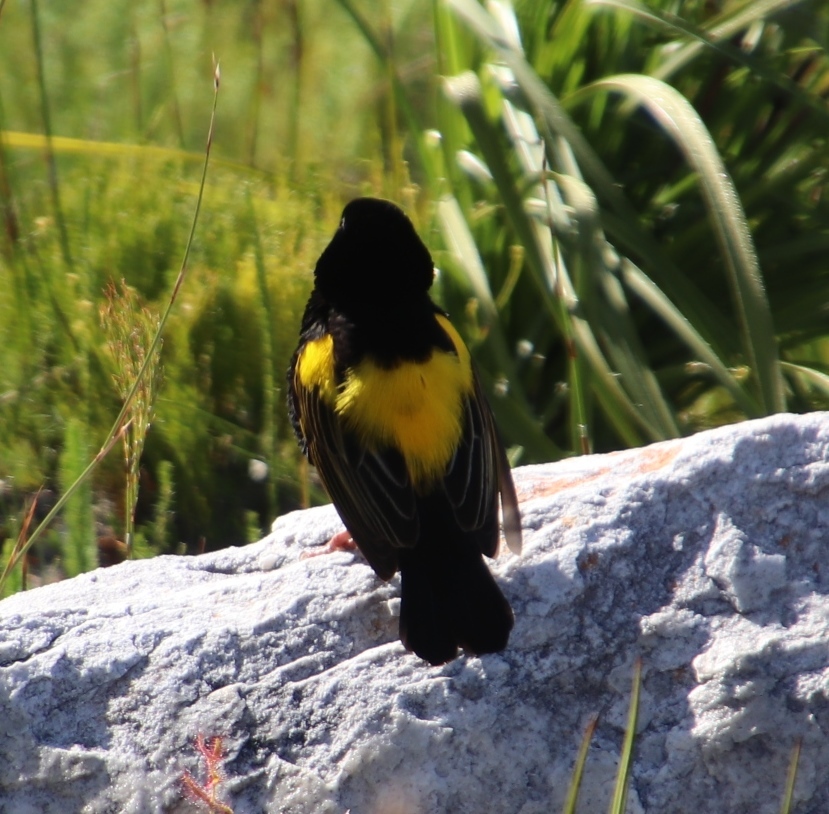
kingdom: Animalia
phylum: Chordata
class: Aves
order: Passeriformes
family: Ploceidae
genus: Euplectes
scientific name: Euplectes capensis
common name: Yellow bishop
